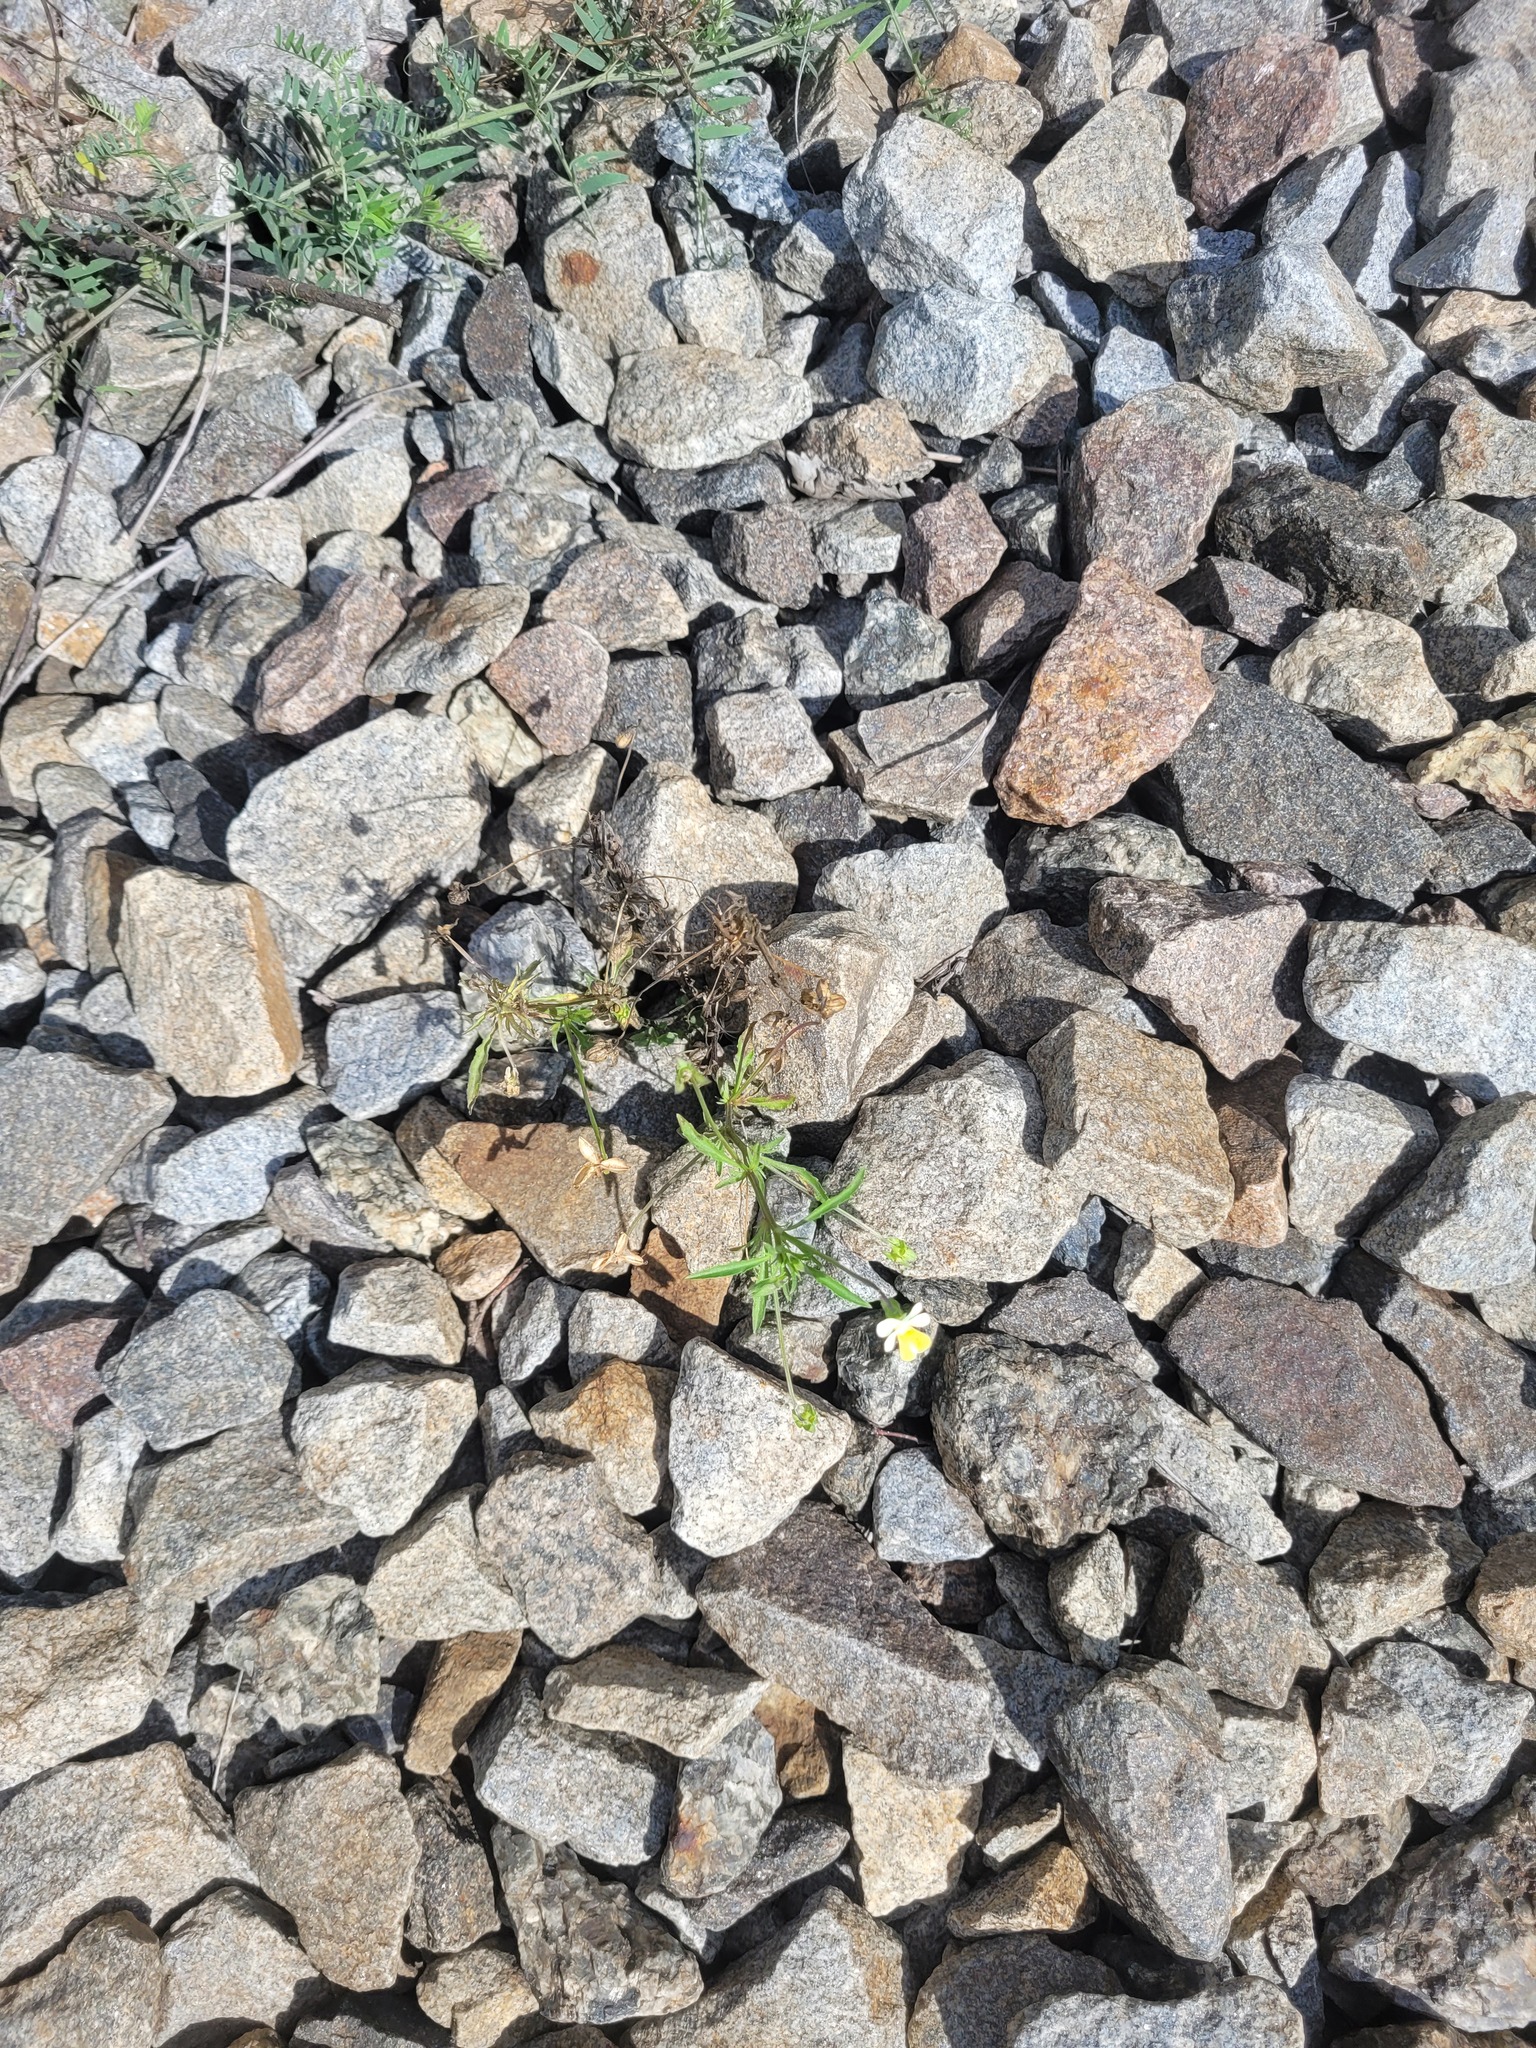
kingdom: Plantae
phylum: Tracheophyta
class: Magnoliopsida
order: Malpighiales
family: Violaceae
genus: Viola
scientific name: Viola arvensis
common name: Field pansy
